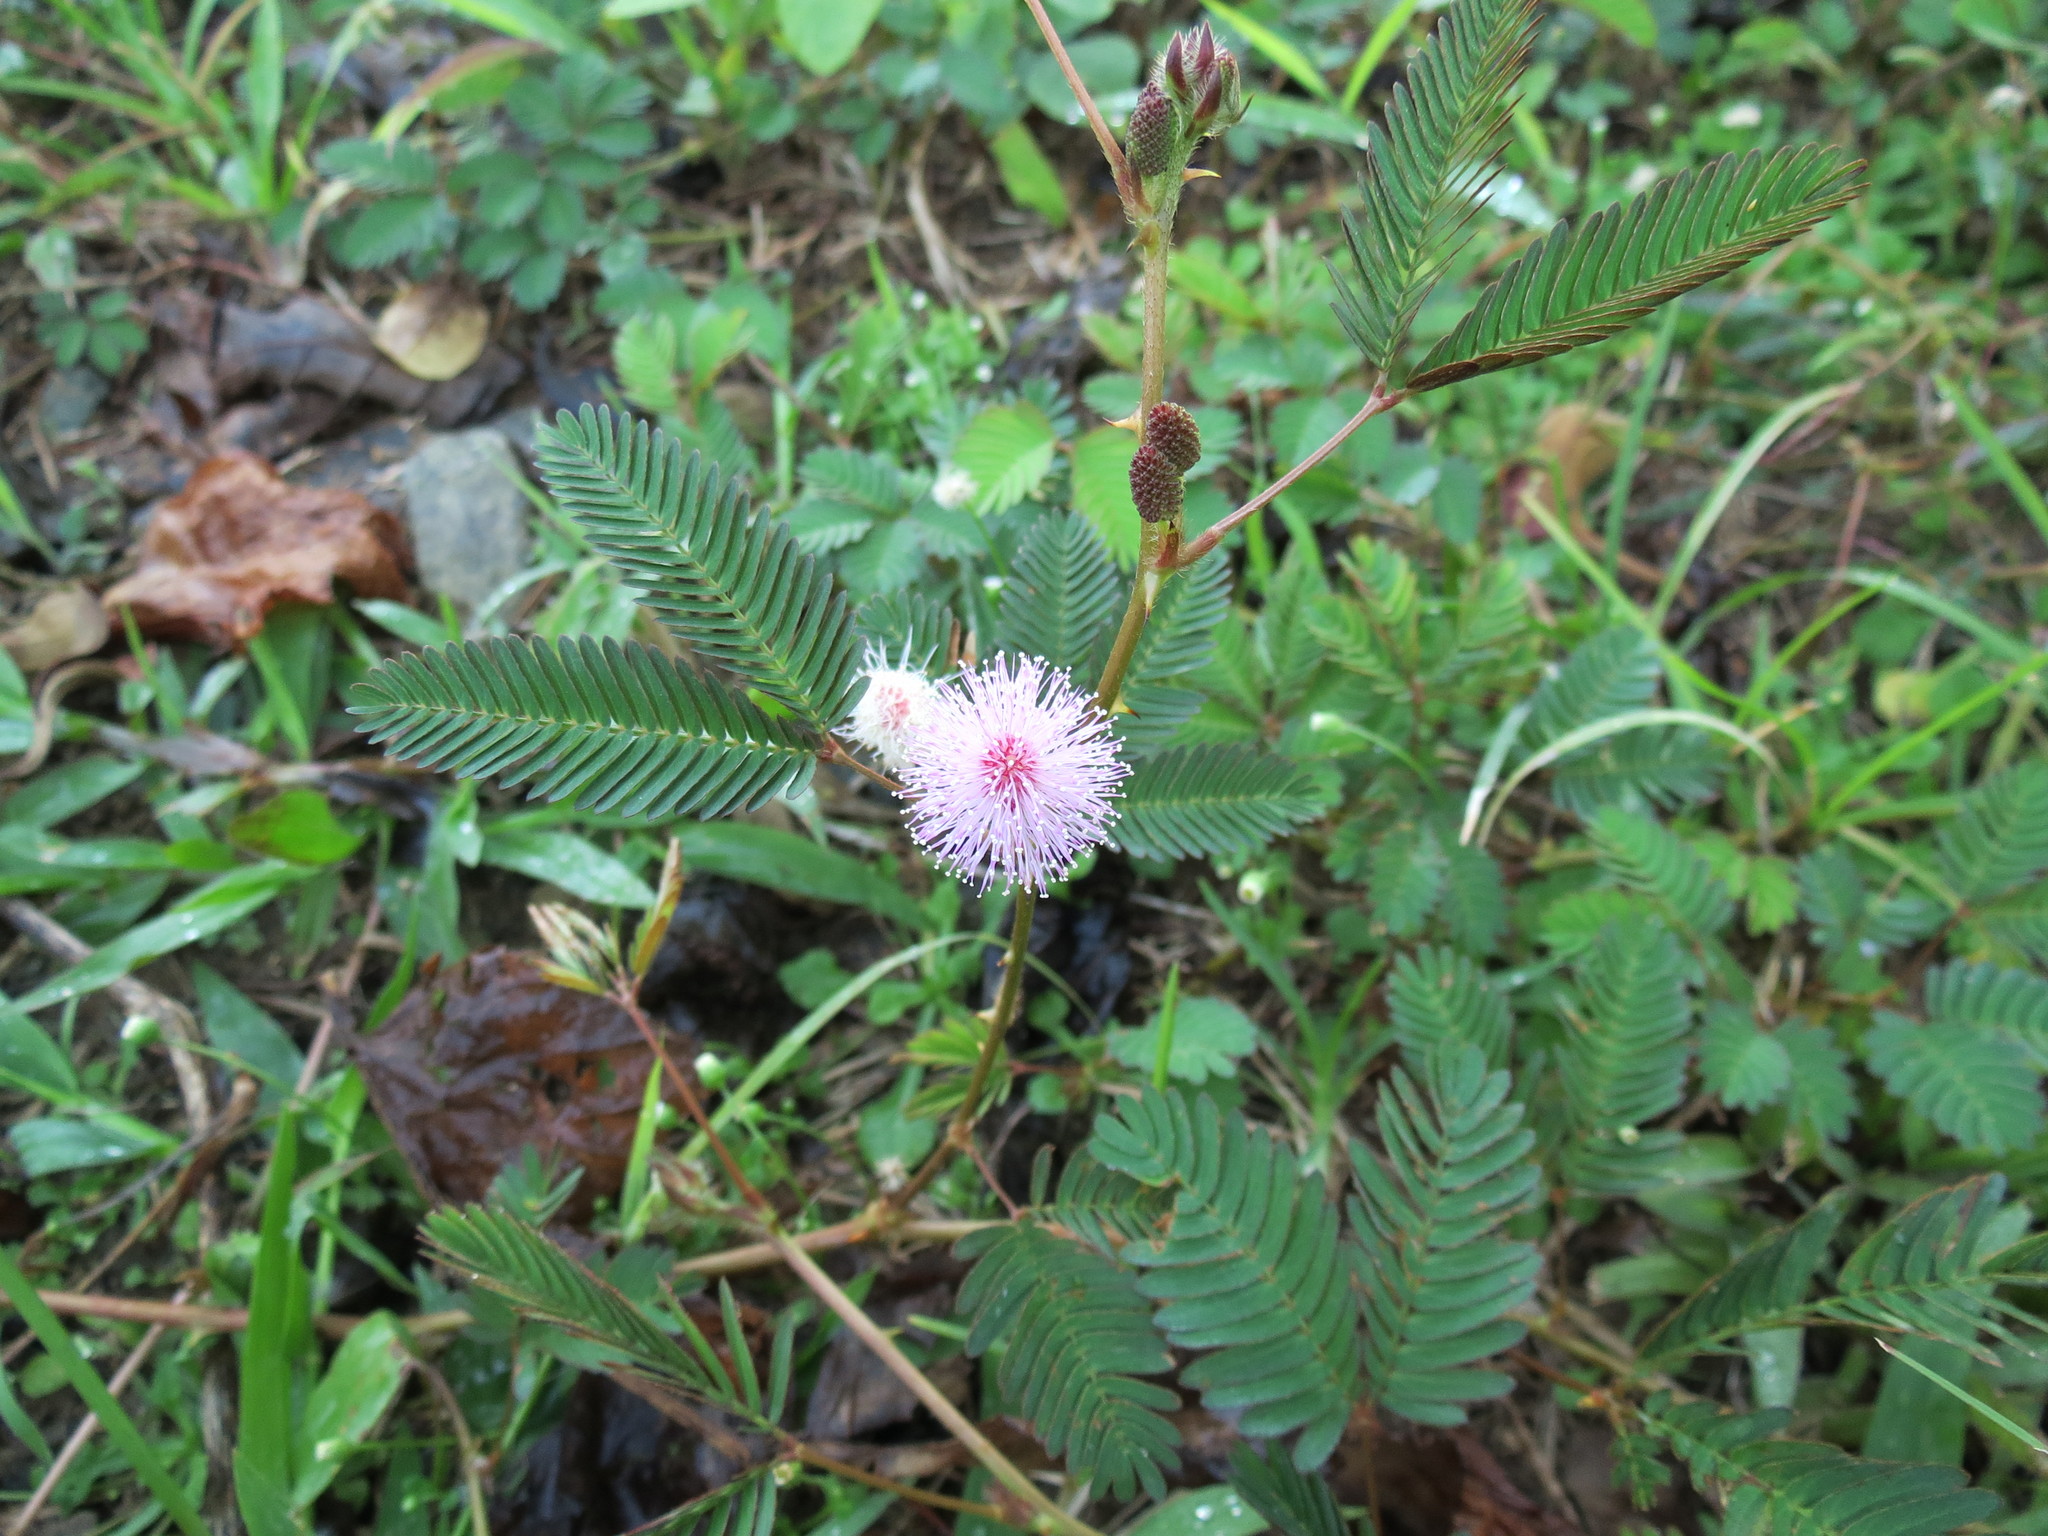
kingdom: Plantae
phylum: Tracheophyta
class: Magnoliopsida
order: Fabales
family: Fabaceae
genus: Mimosa
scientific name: Mimosa pudica
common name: Sensitive plant
